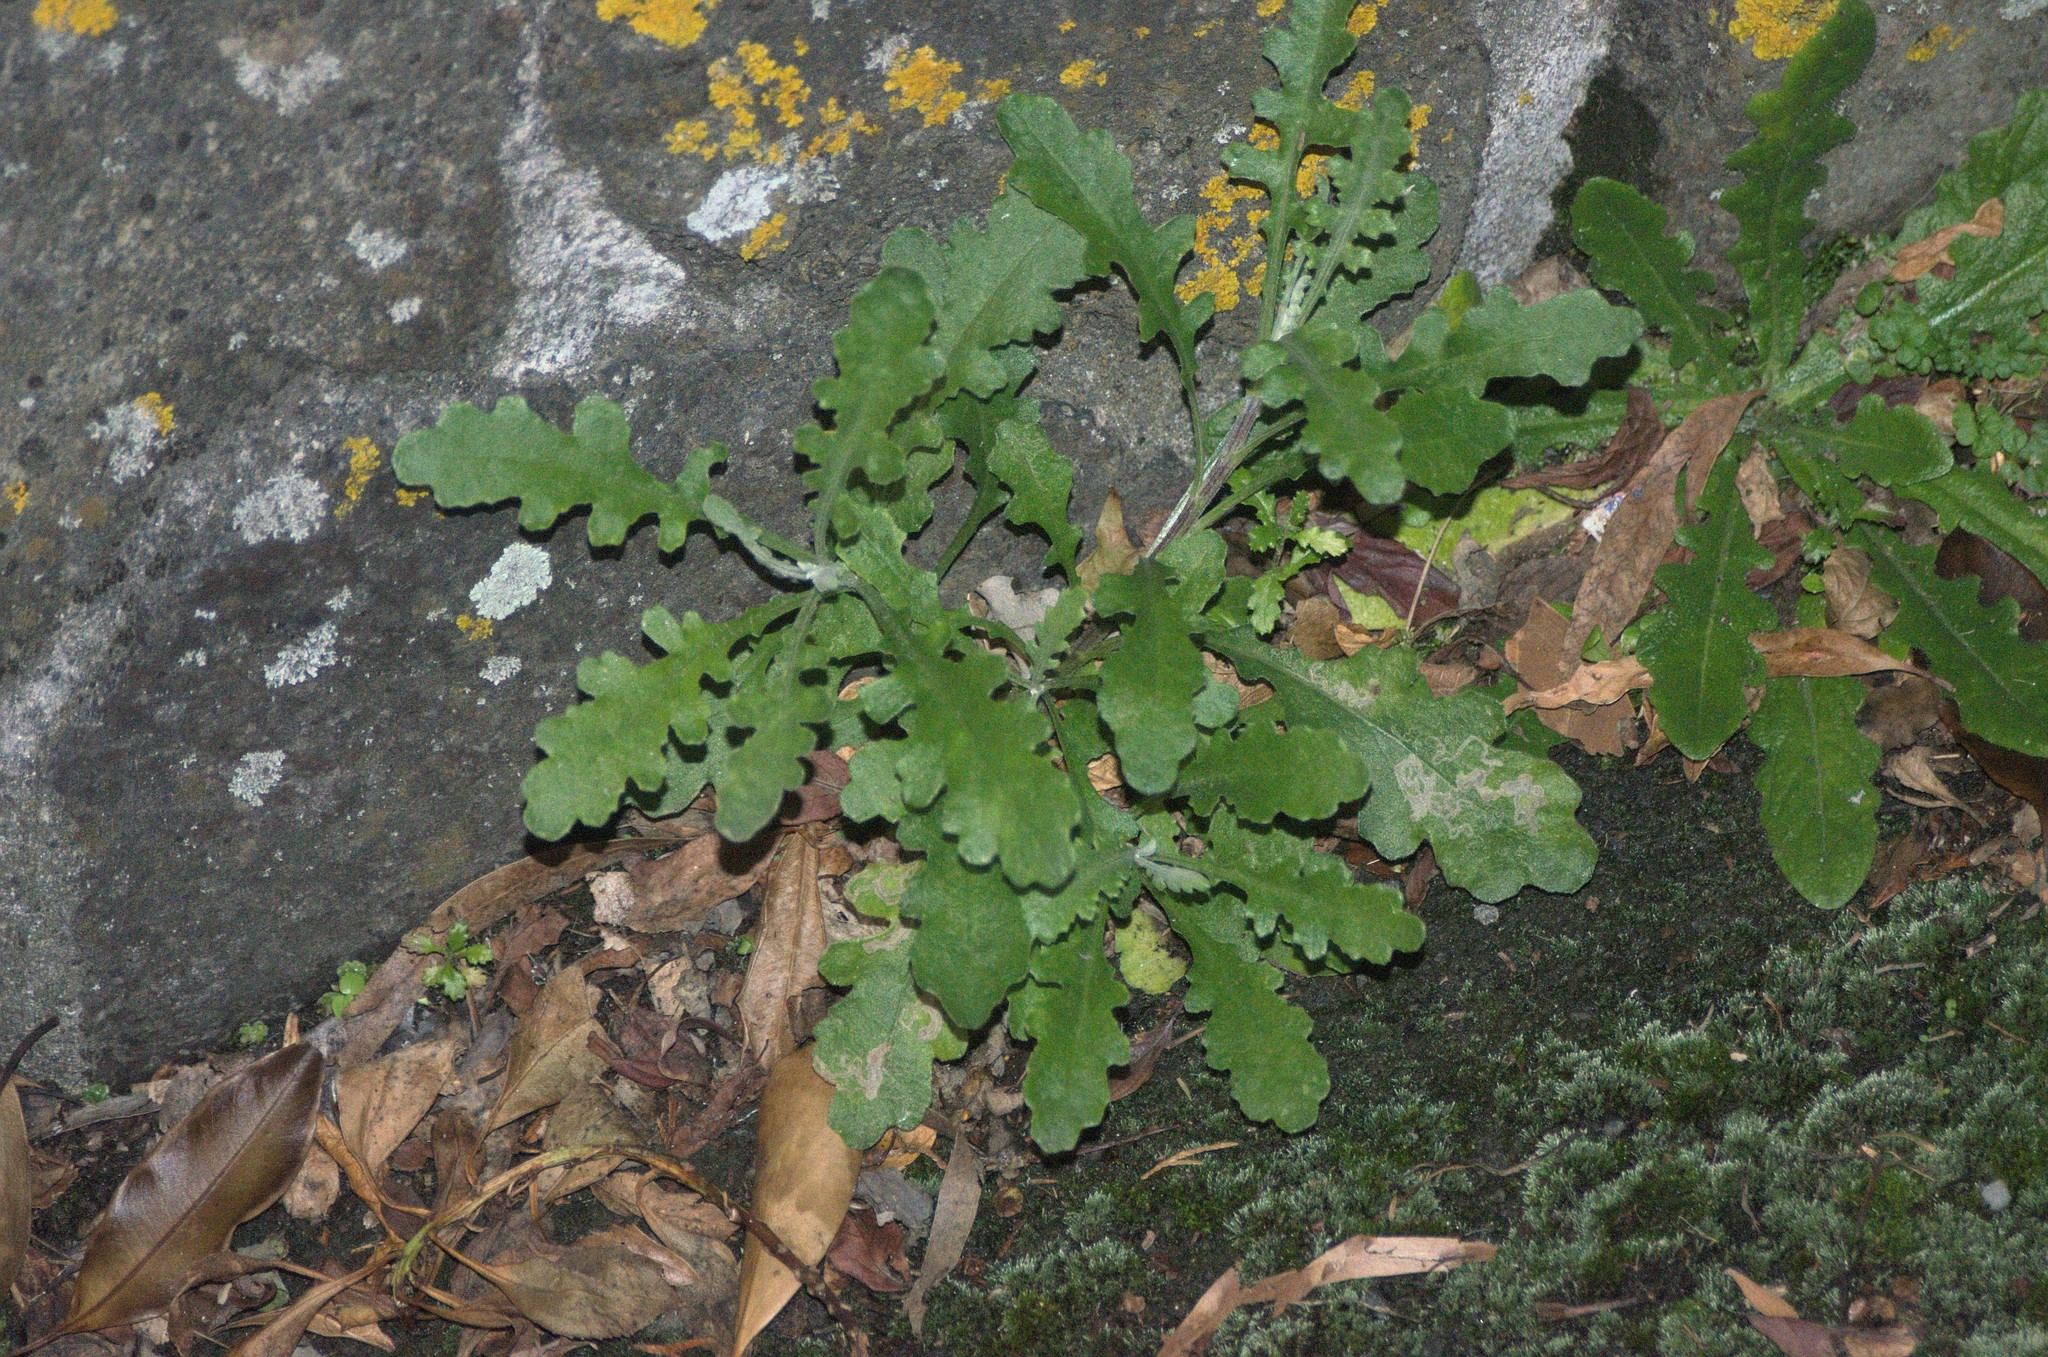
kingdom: Plantae
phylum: Tracheophyta
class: Magnoliopsida
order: Asterales
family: Asteraceae
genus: Senecio
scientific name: Senecio glomeratus
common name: Cutleaf burnweed
